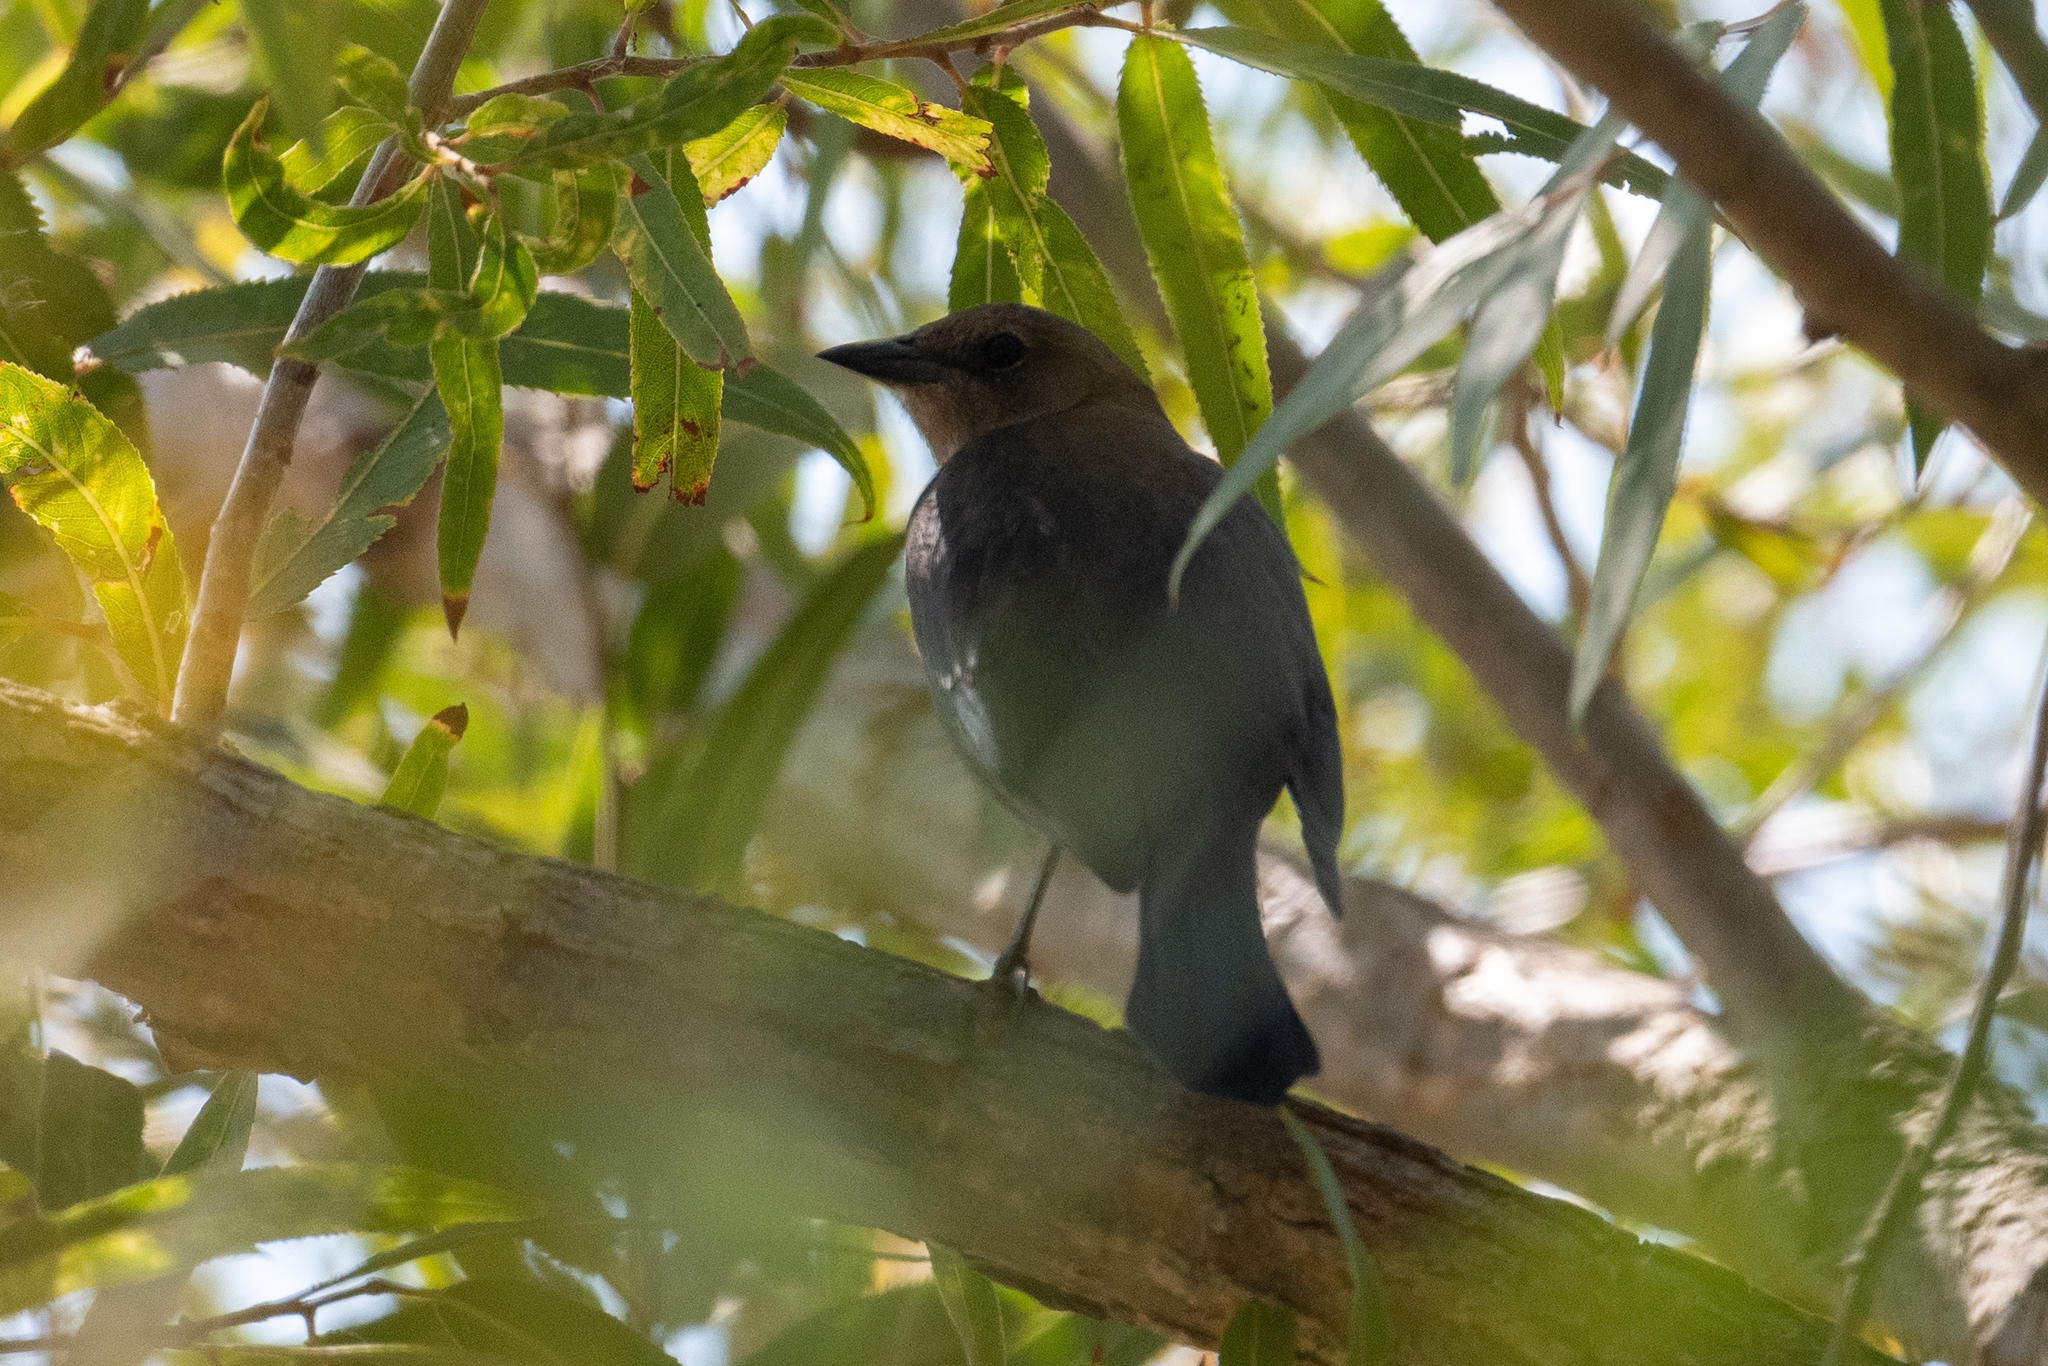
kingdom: Animalia
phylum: Chordata
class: Aves
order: Passeriformes
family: Icteridae
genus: Euphagus
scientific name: Euphagus cyanocephalus
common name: Brewer's blackbird
